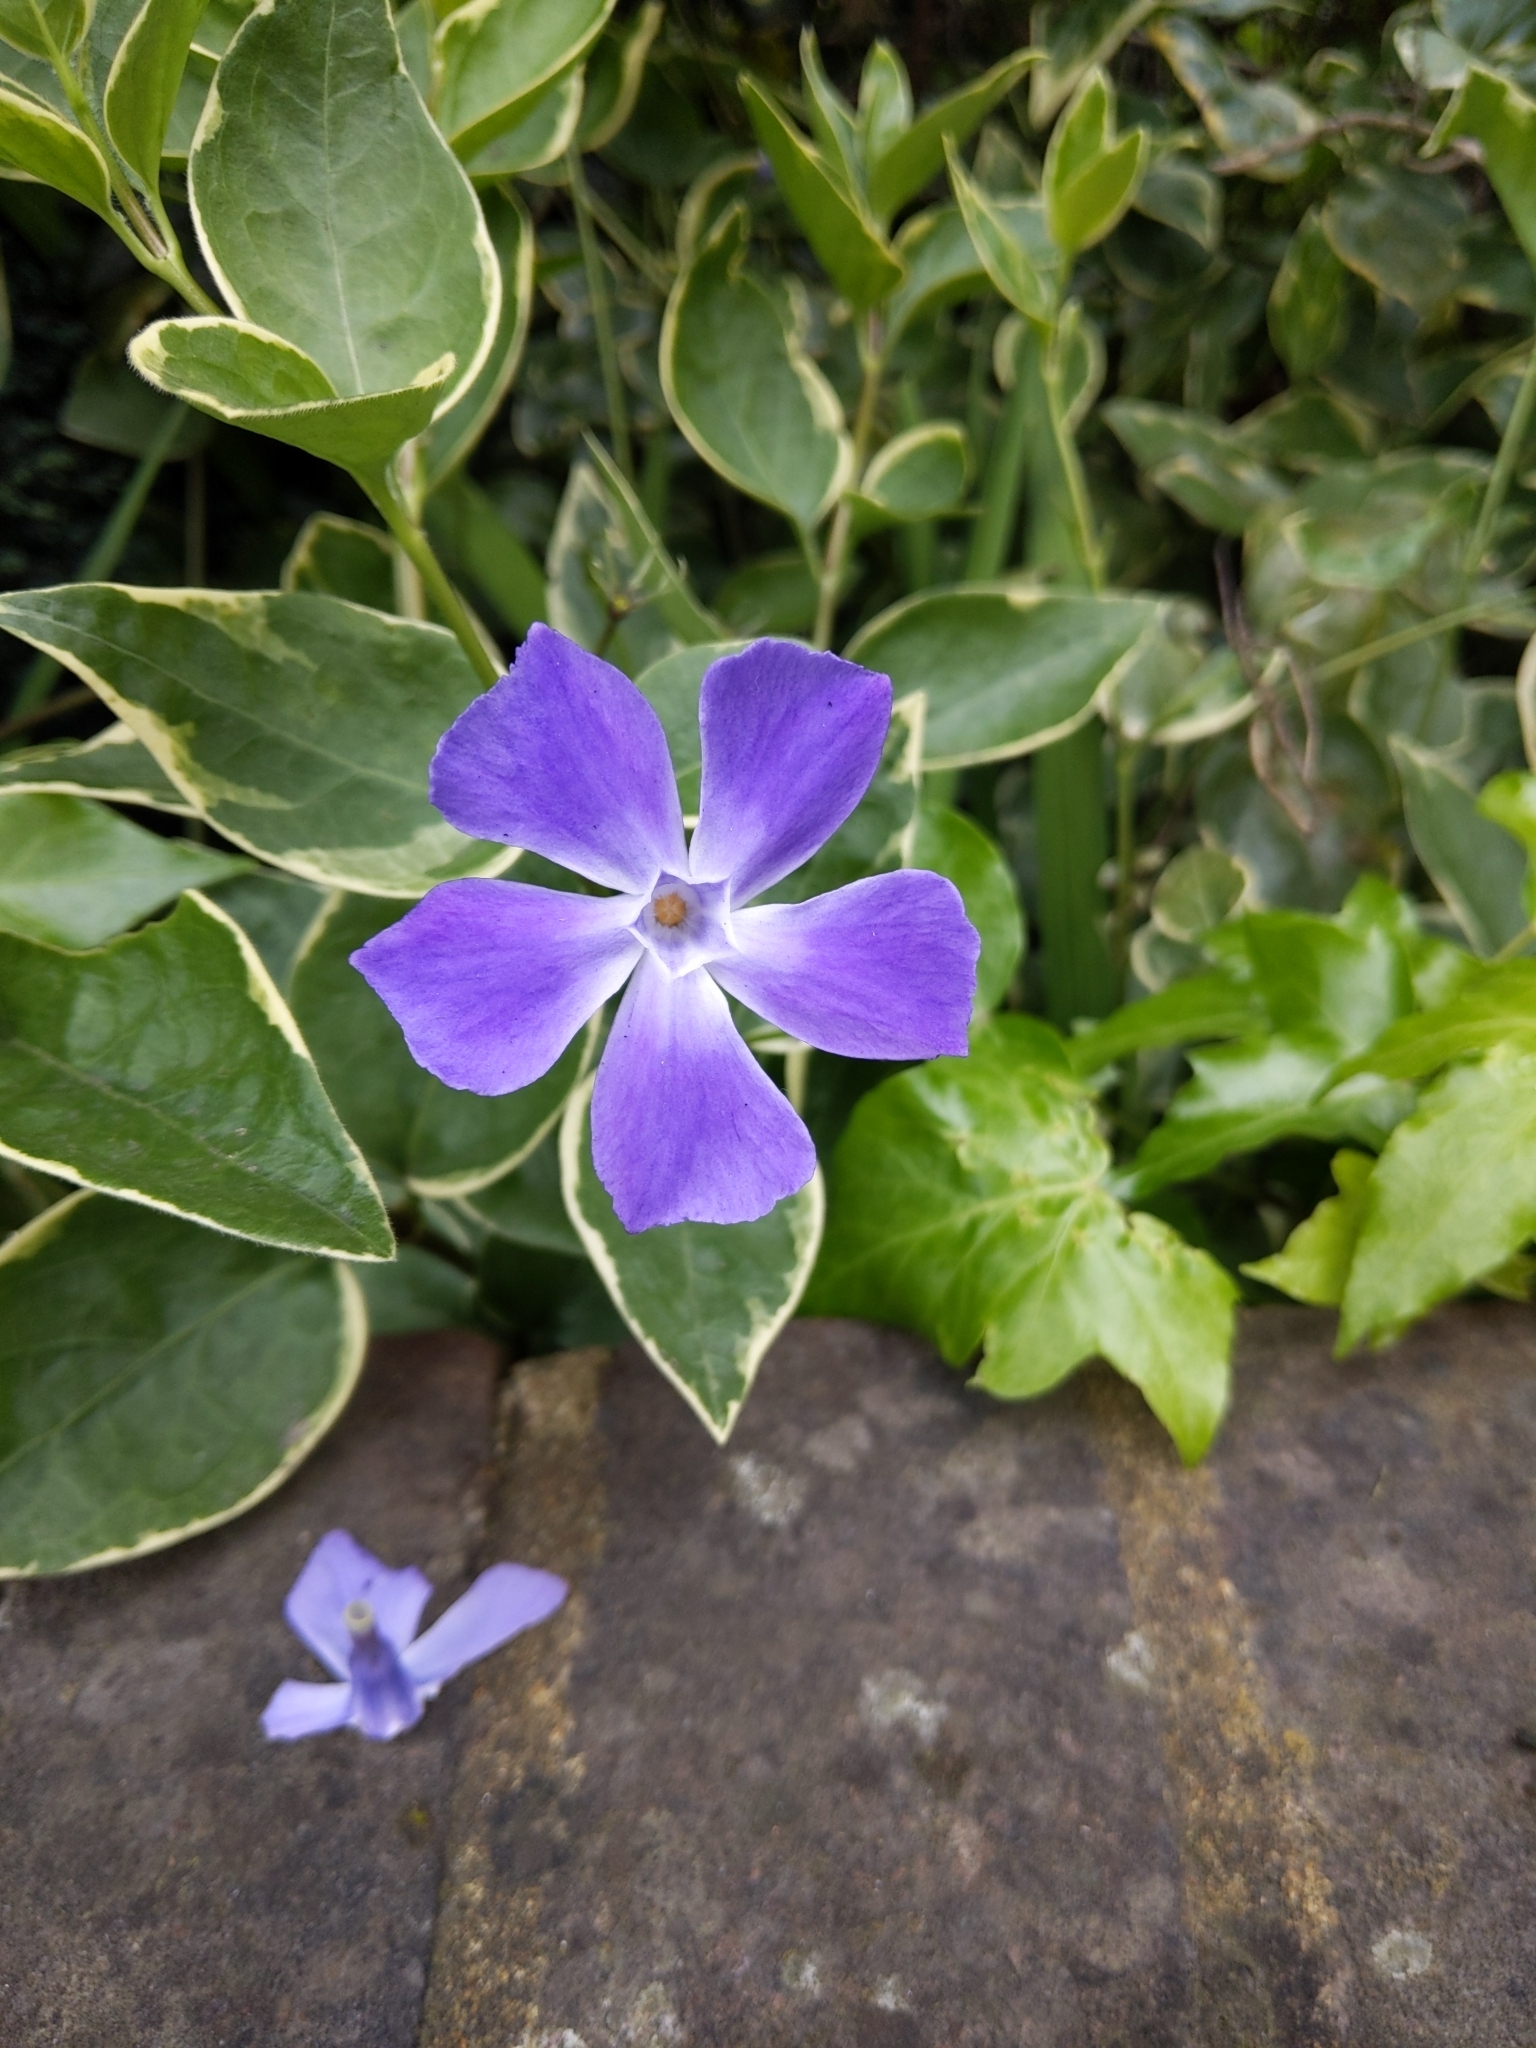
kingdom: Plantae
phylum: Tracheophyta
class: Magnoliopsida
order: Gentianales
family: Apocynaceae
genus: Vinca
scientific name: Vinca major
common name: Greater periwinkle
